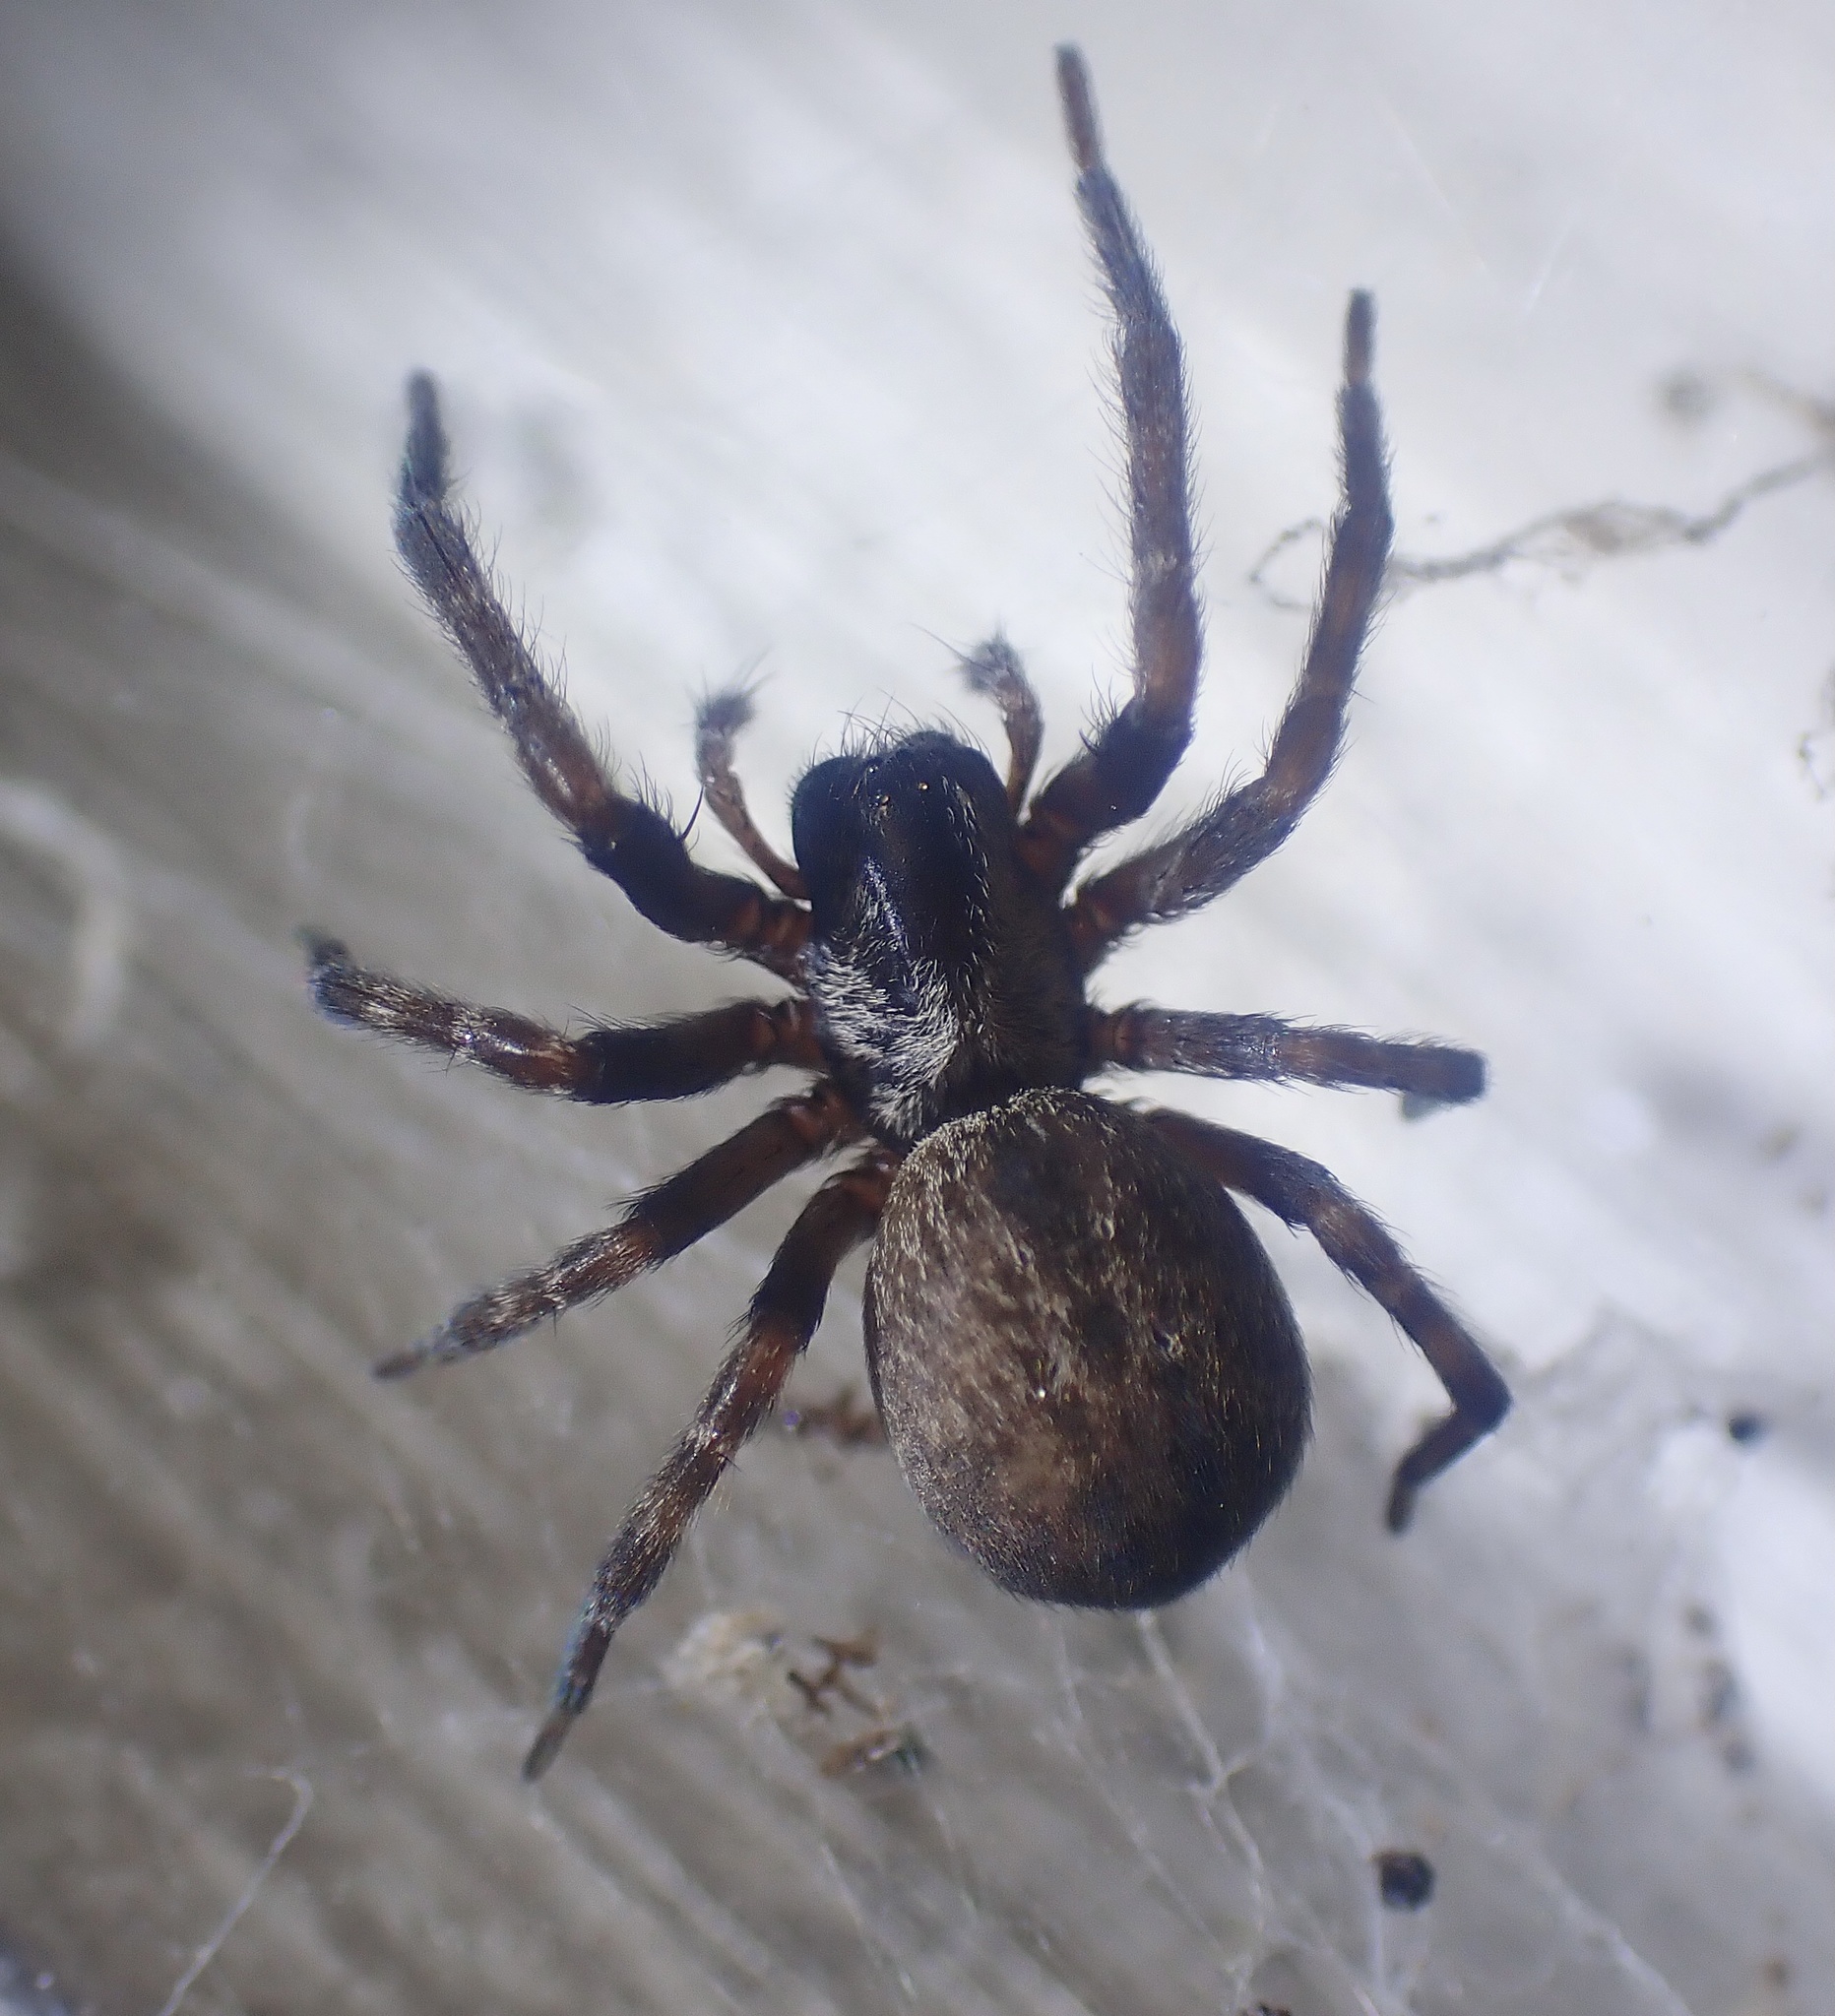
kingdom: Animalia
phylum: Arthropoda
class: Arachnida
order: Araneae
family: Desidae
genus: Badumna
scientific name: Badumna longinqua
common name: Gray house spider
